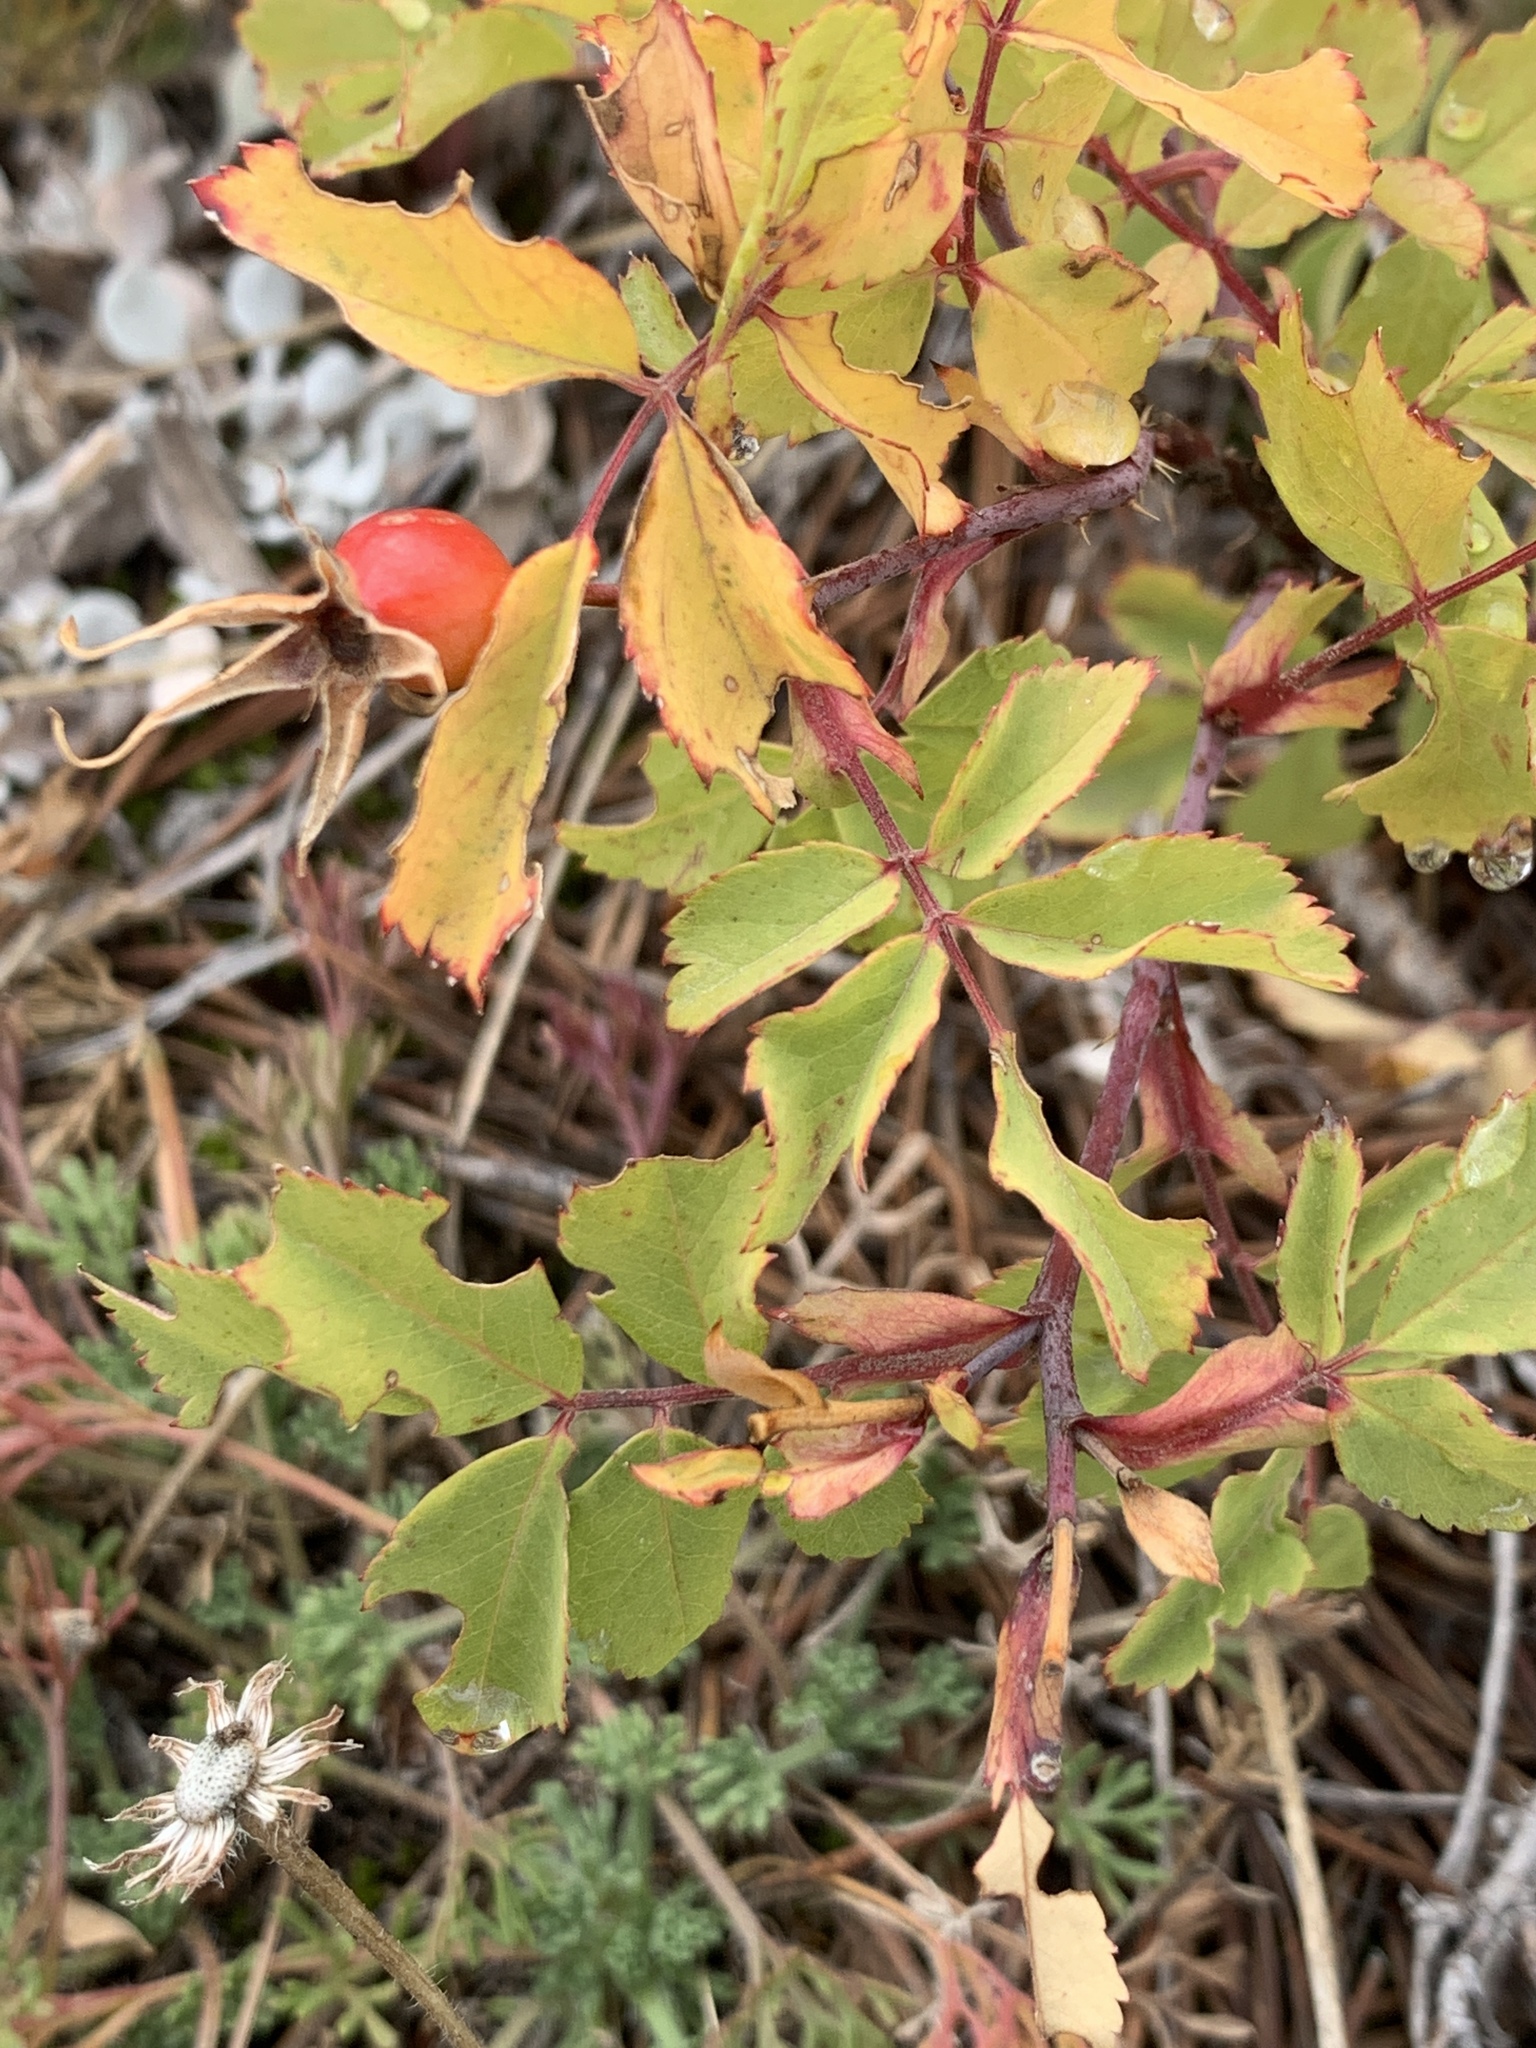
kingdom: Plantae
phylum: Tracheophyta
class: Magnoliopsida
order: Rosales
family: Rosaceae
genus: Rosa
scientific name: Rosa woodsii
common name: Woods's rose
